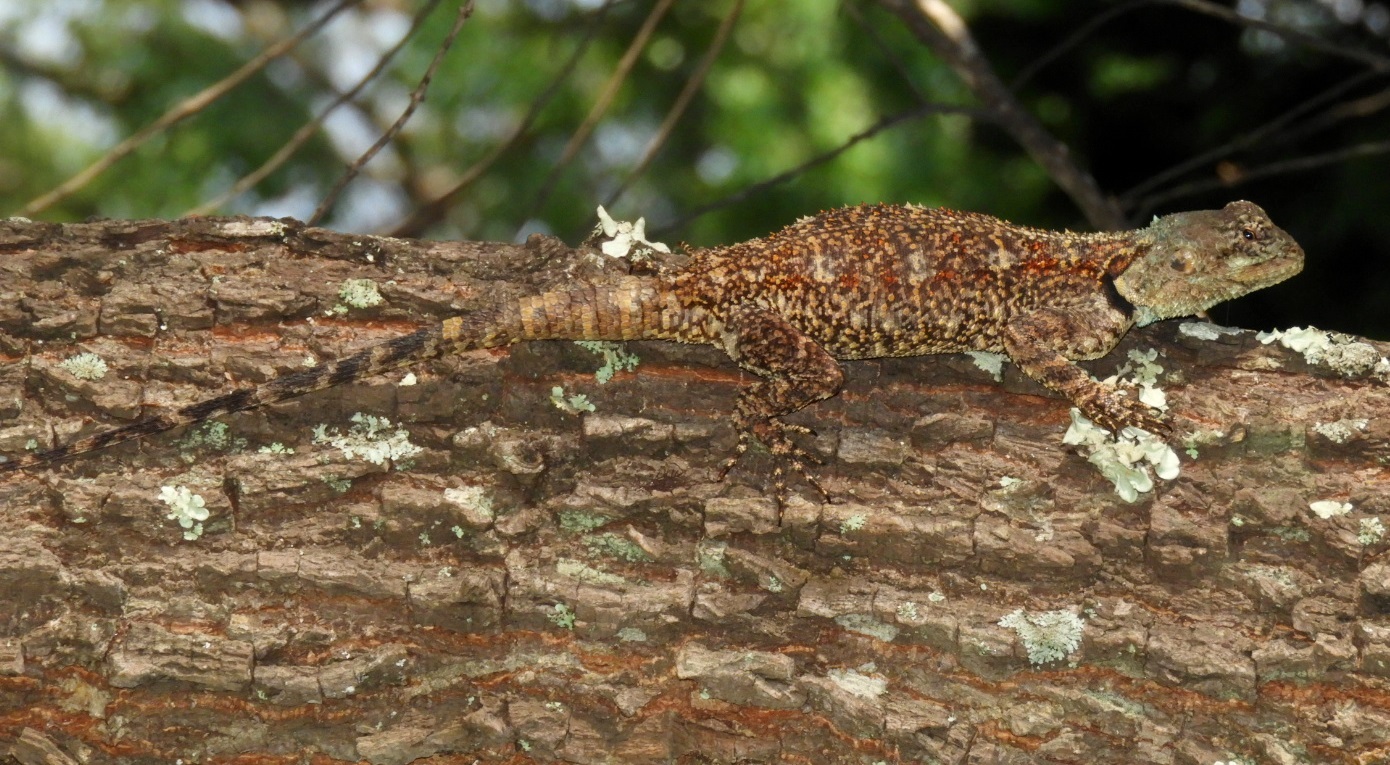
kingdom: Animalia
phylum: Chordata
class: Squamata
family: Agamidae
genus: Acanthocercus
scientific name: Acanthocercus cyanocephalus
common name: Falk’s blue-headed tree agama
